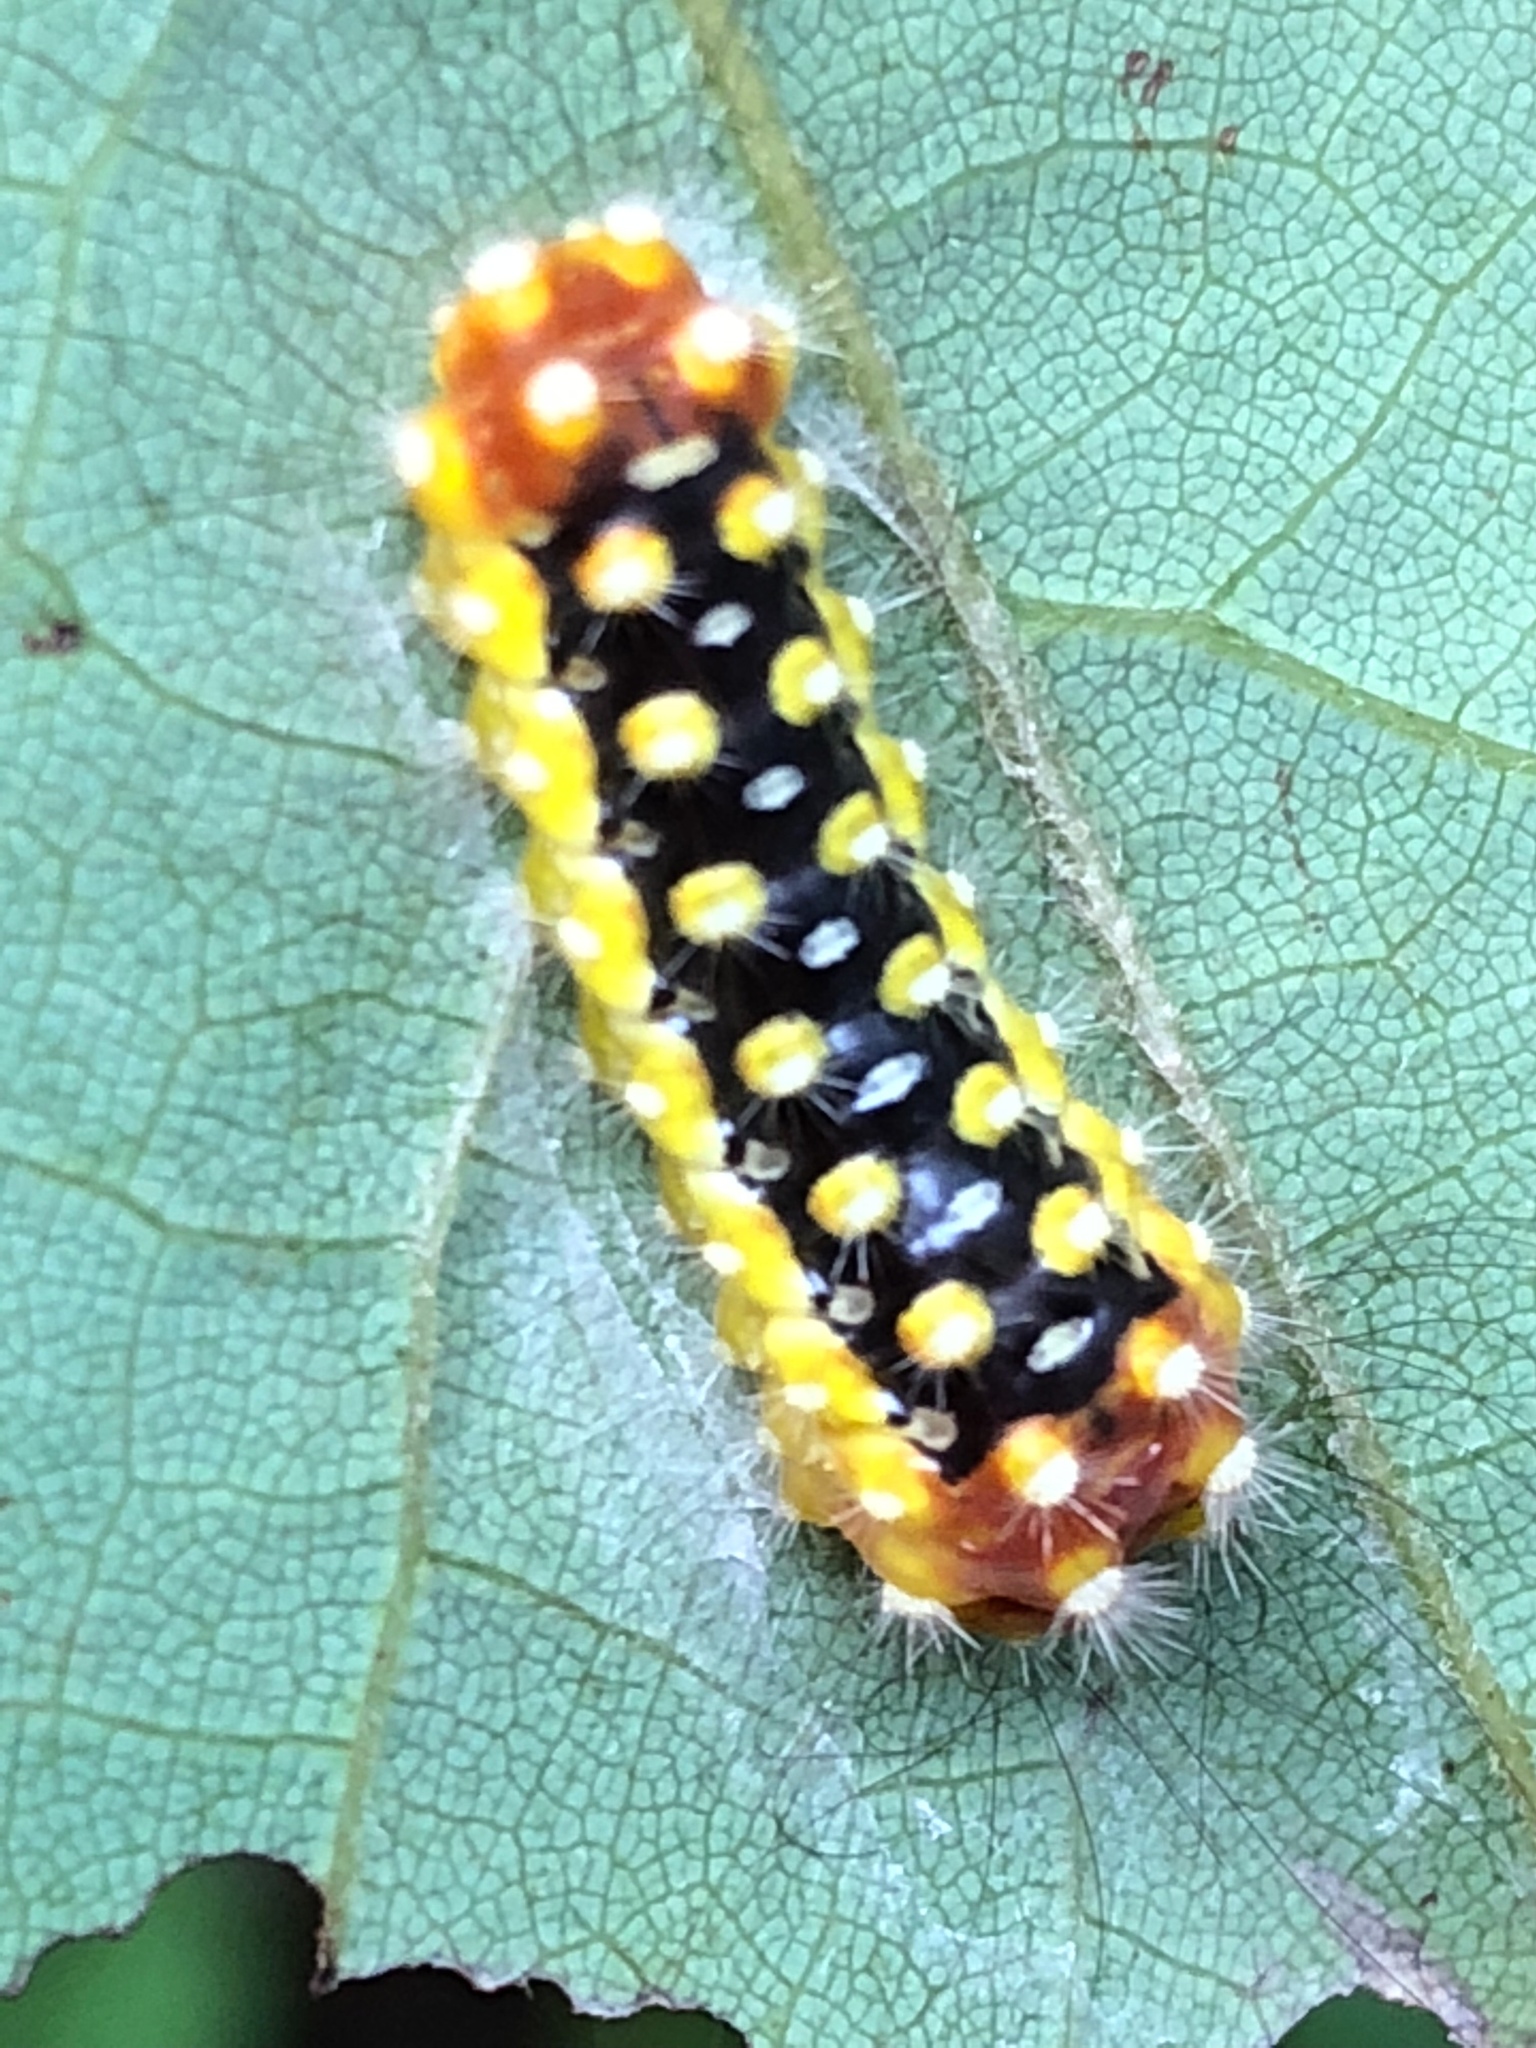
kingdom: Animalia
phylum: Arthropoda
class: Insecta
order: Lepidoptera
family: Megalopygidae
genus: Norape
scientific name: Norape cretata
